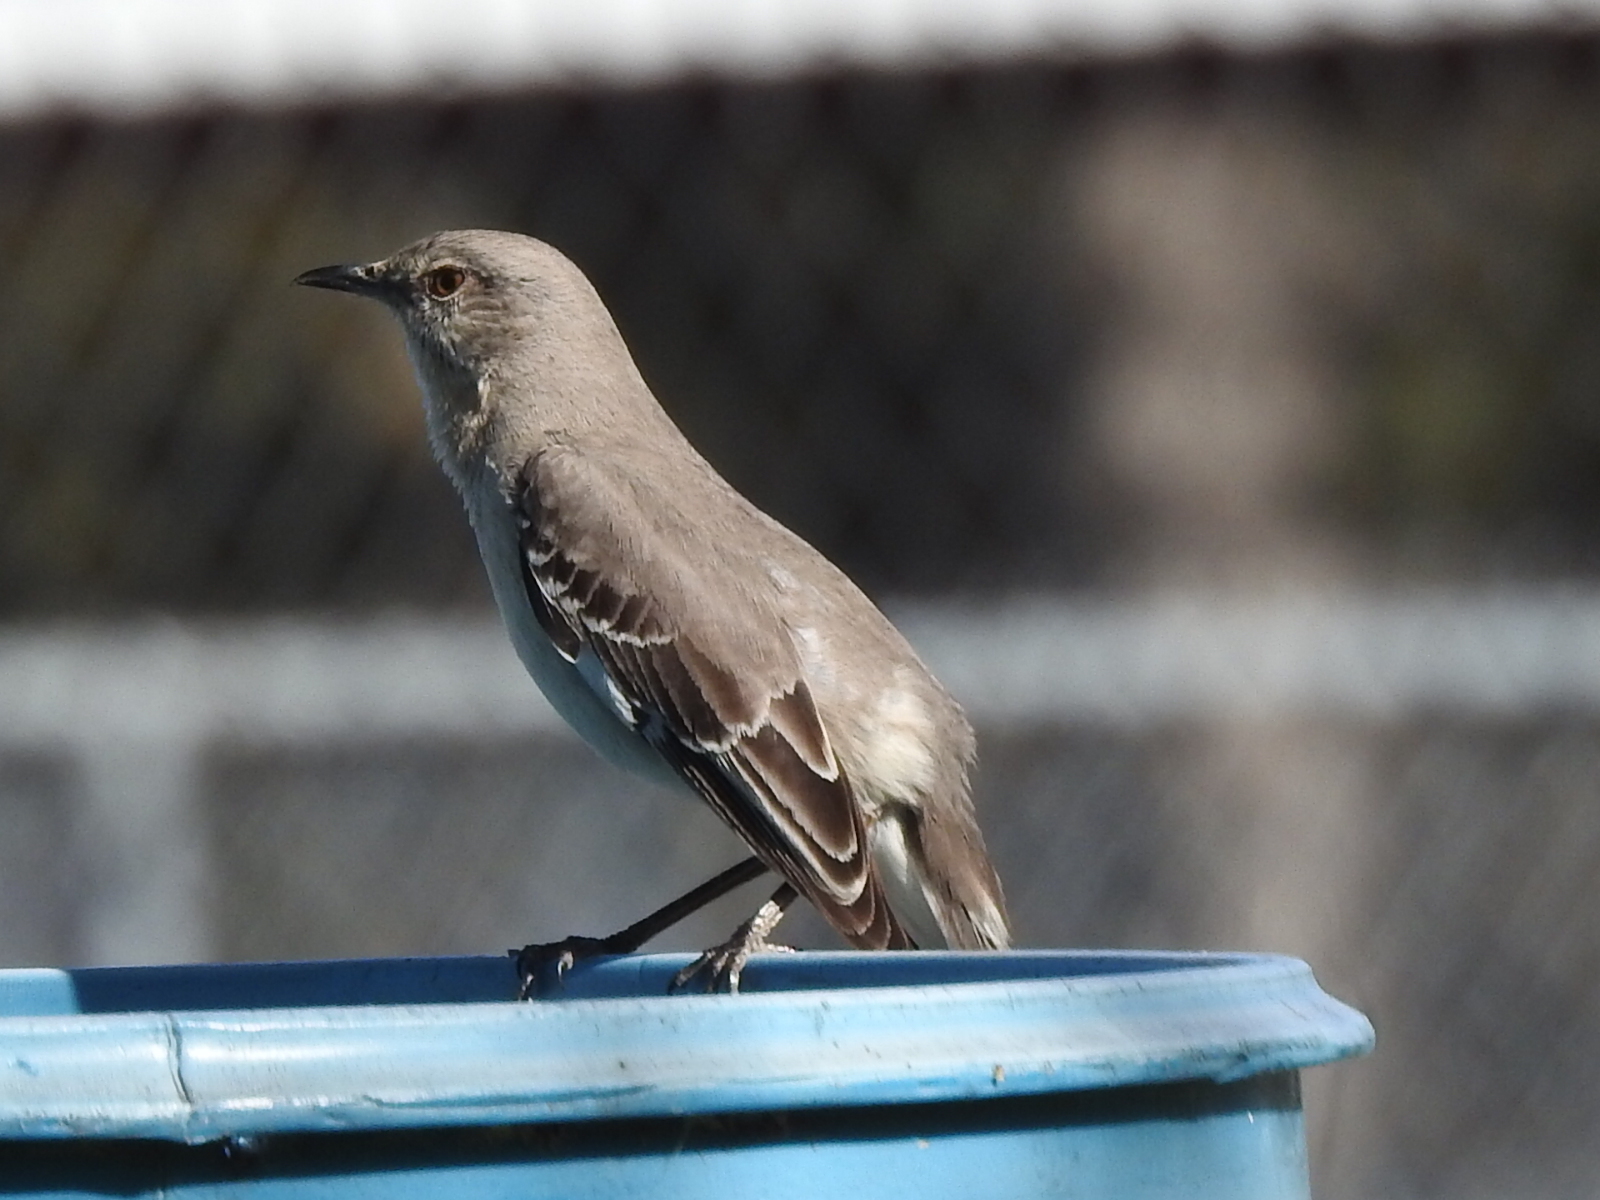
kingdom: Animalia
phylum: Chordata
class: Aves
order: Passeriformes
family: Mimidae
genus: Mimus
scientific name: Mimus polyglottos
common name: Northern mockingbird
